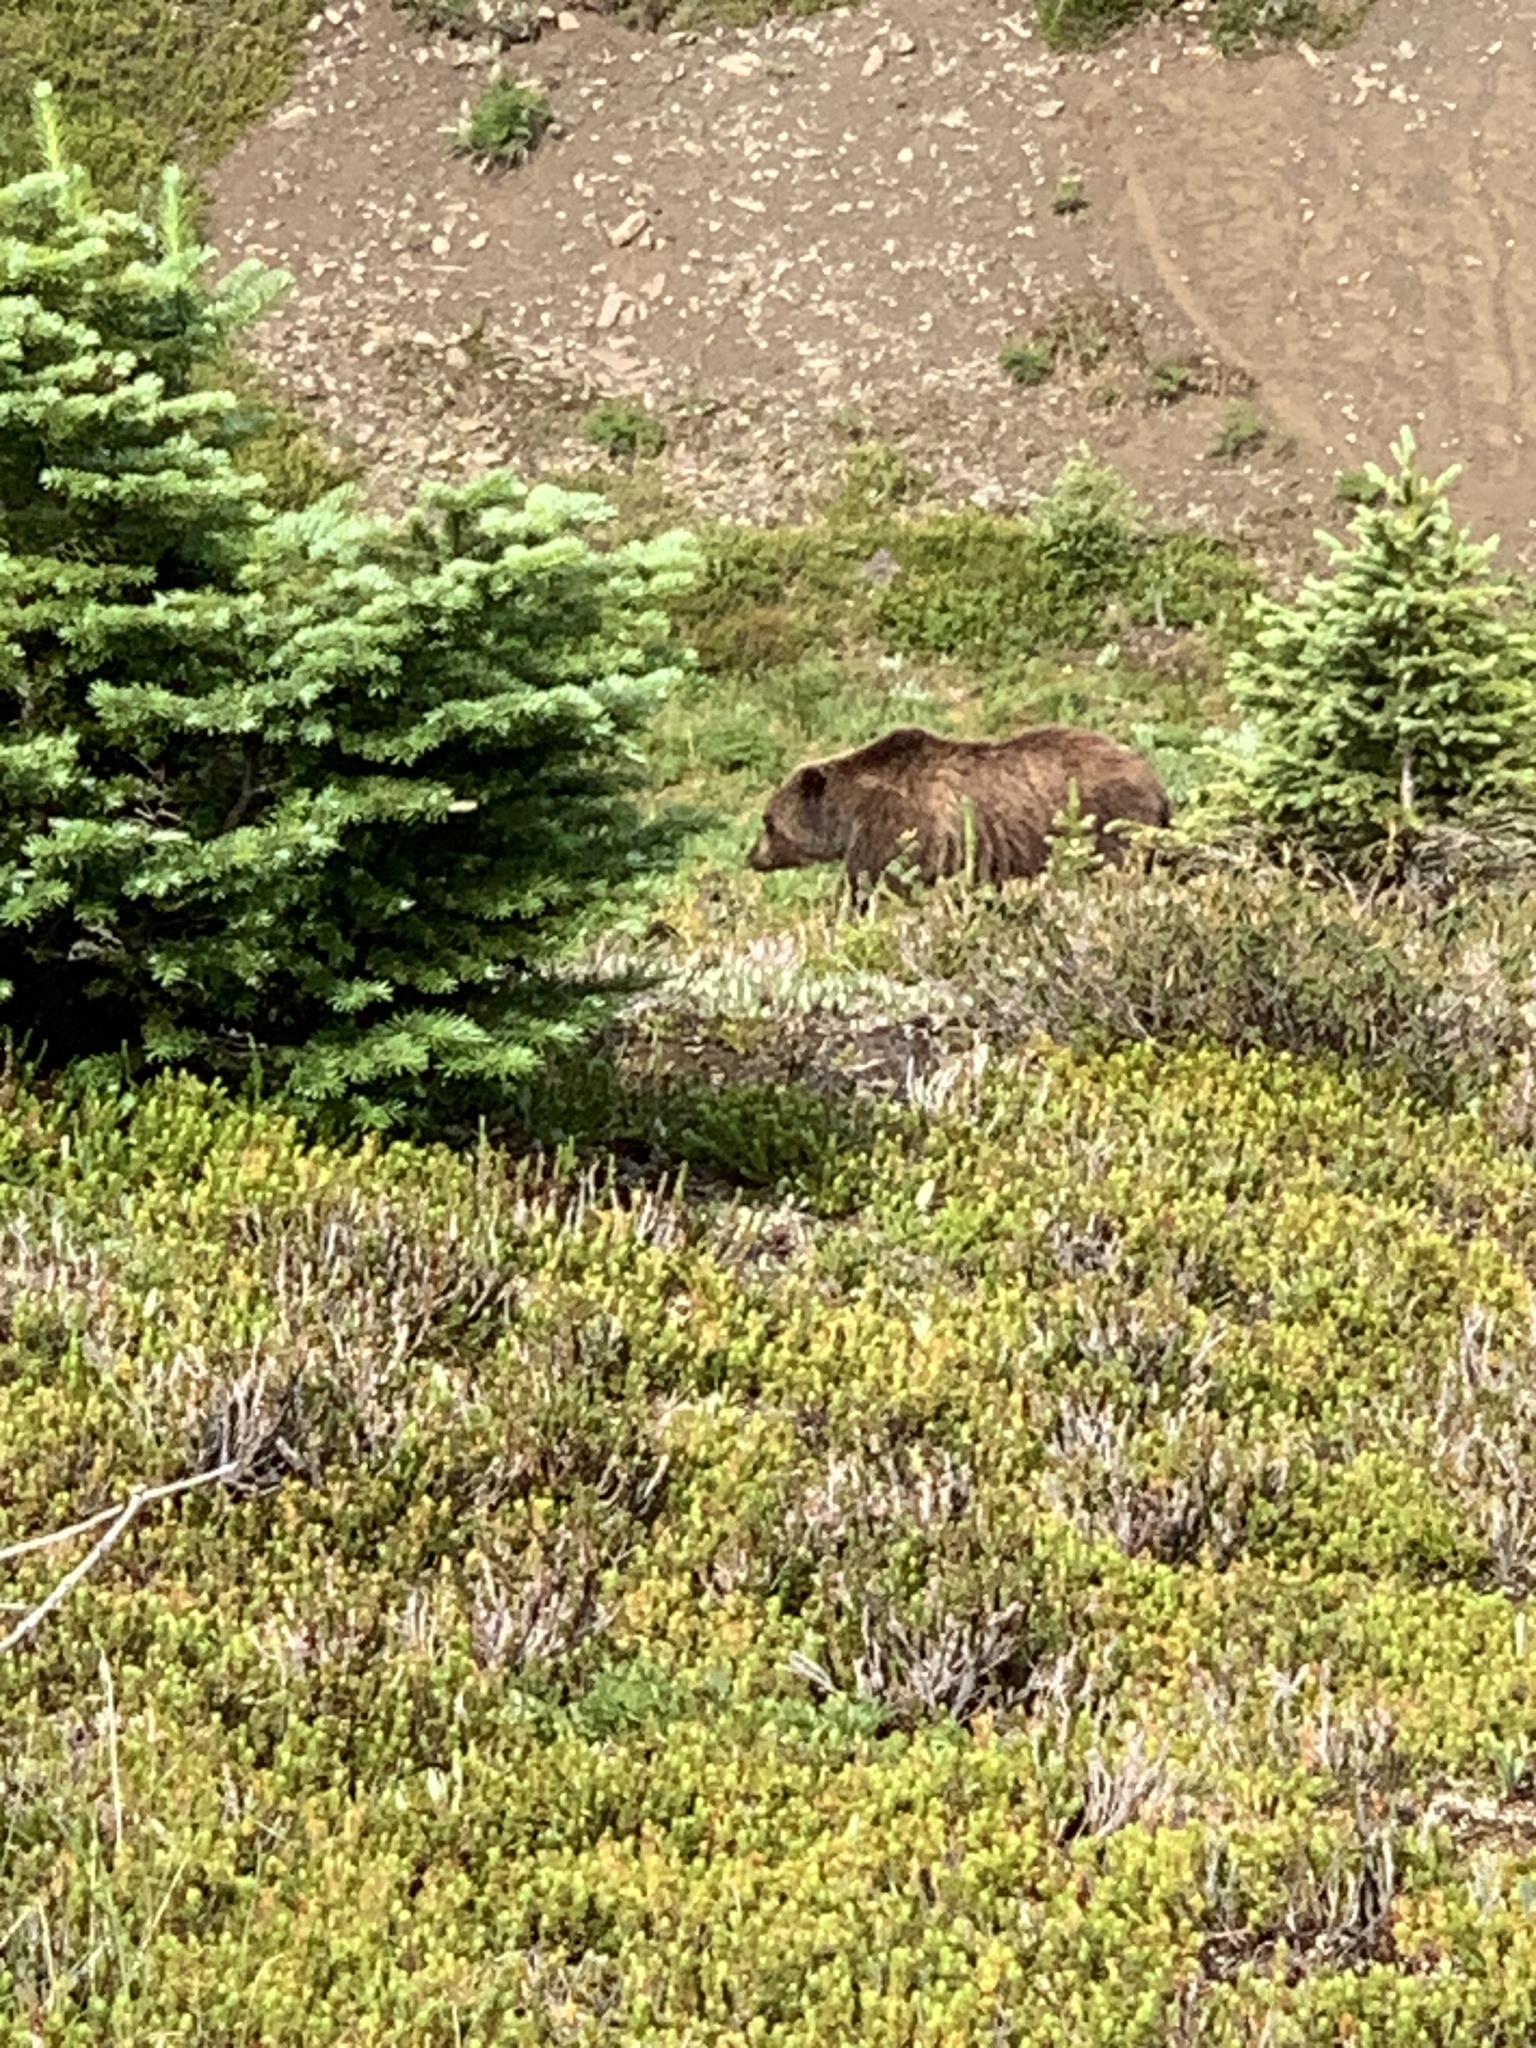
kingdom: Animalia
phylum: Chordata
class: Mammalia
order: Carnivora
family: Ursidae
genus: Ursus
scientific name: Ursus arctos
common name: Brown bear
